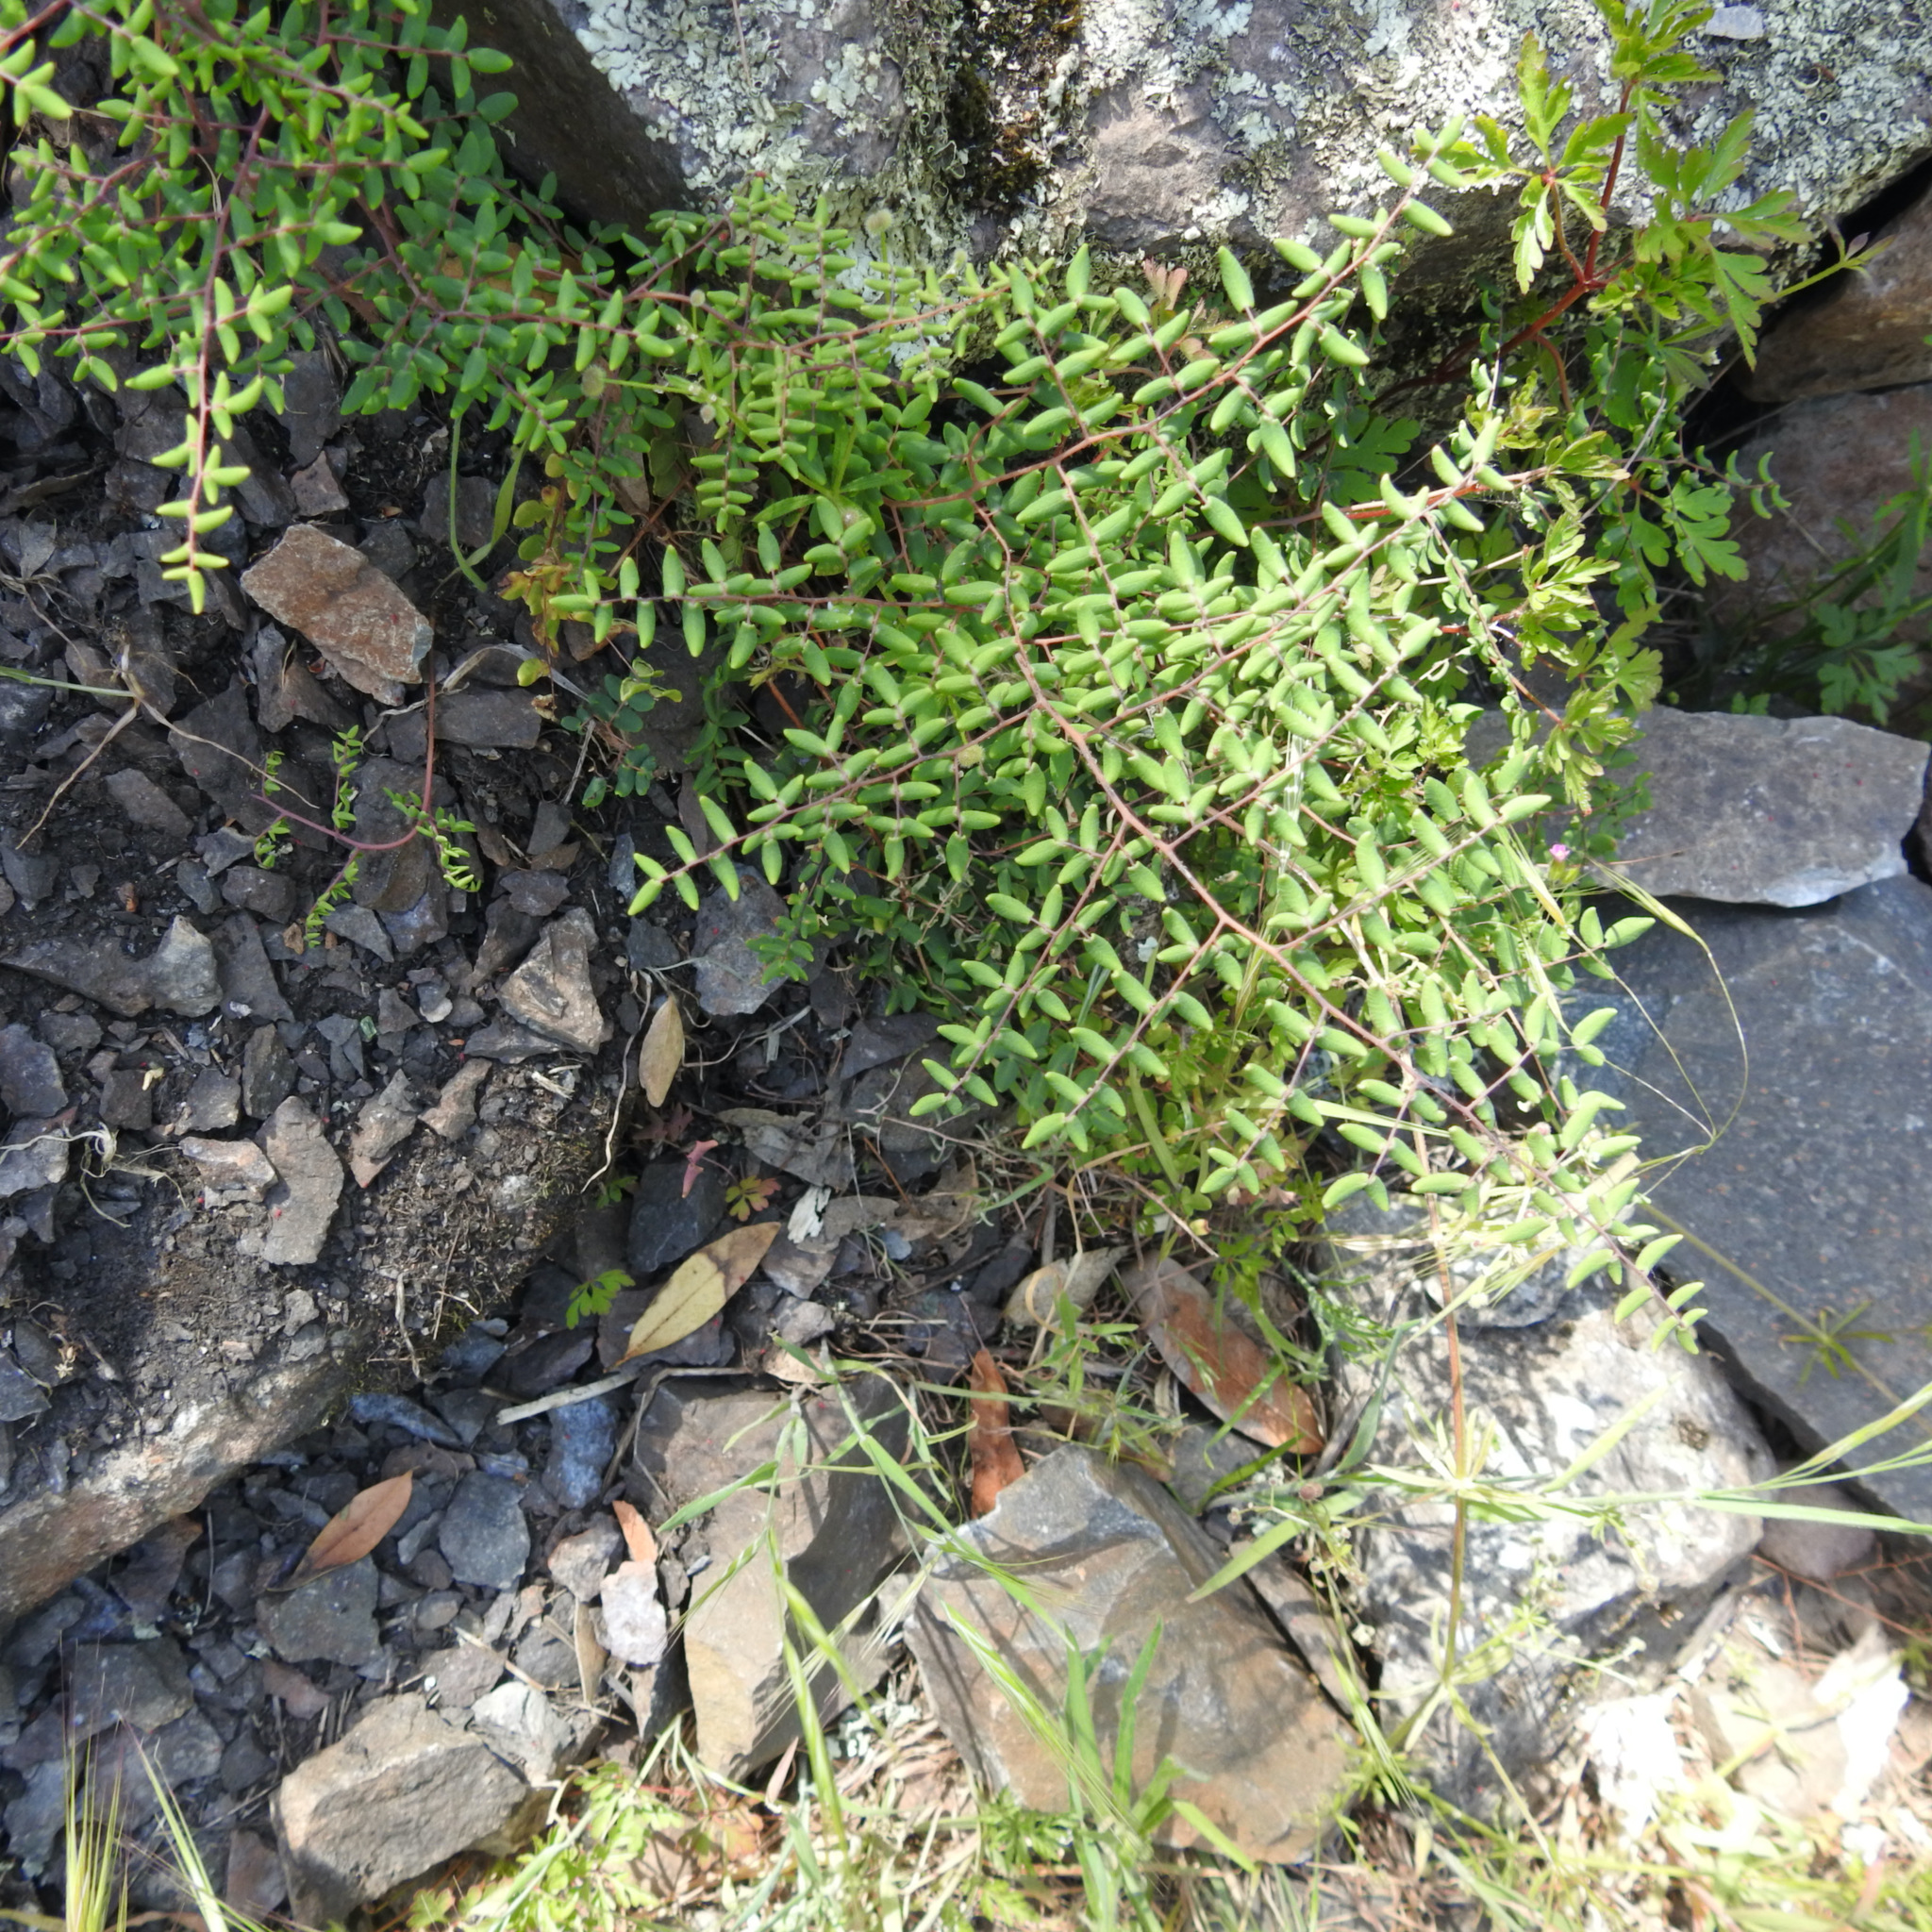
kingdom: Plantae
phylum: Tracheophyta
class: Polypodiopsida
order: Polypodiales
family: Pteridaceae
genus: Pellaea
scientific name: Pellaea andromedifolia
